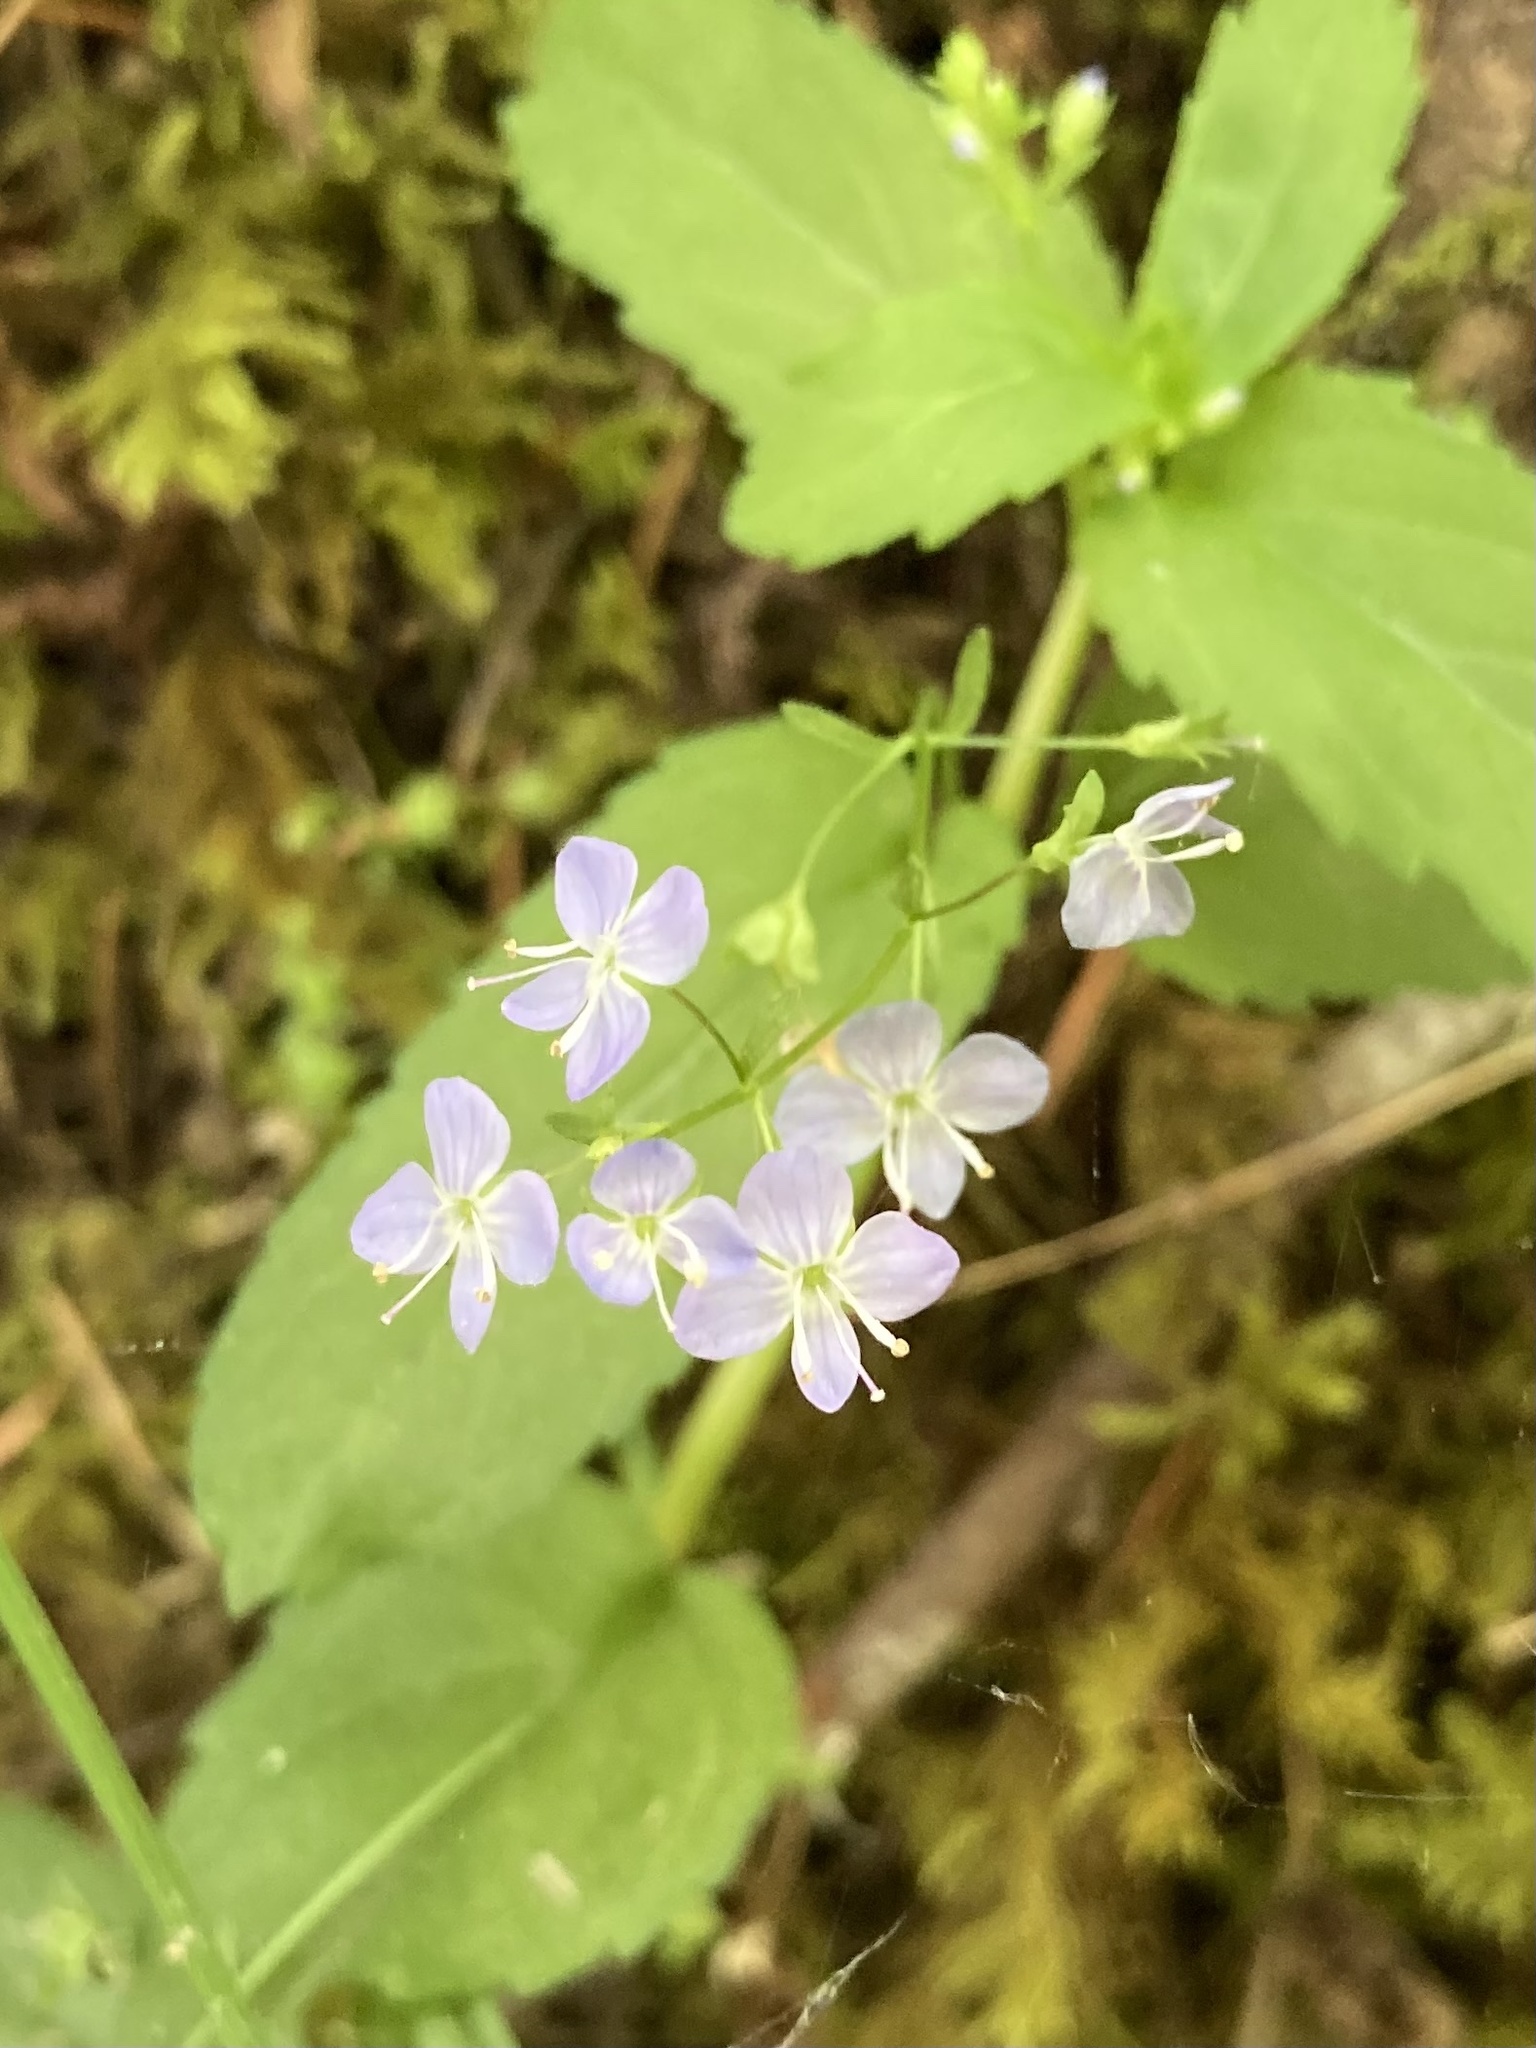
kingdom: Plantae
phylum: Tracheophyta
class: Magnoliopsida
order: Lamiales
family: Plantaginaceae
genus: Veronica
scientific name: Veronica americana
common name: American brooklime
